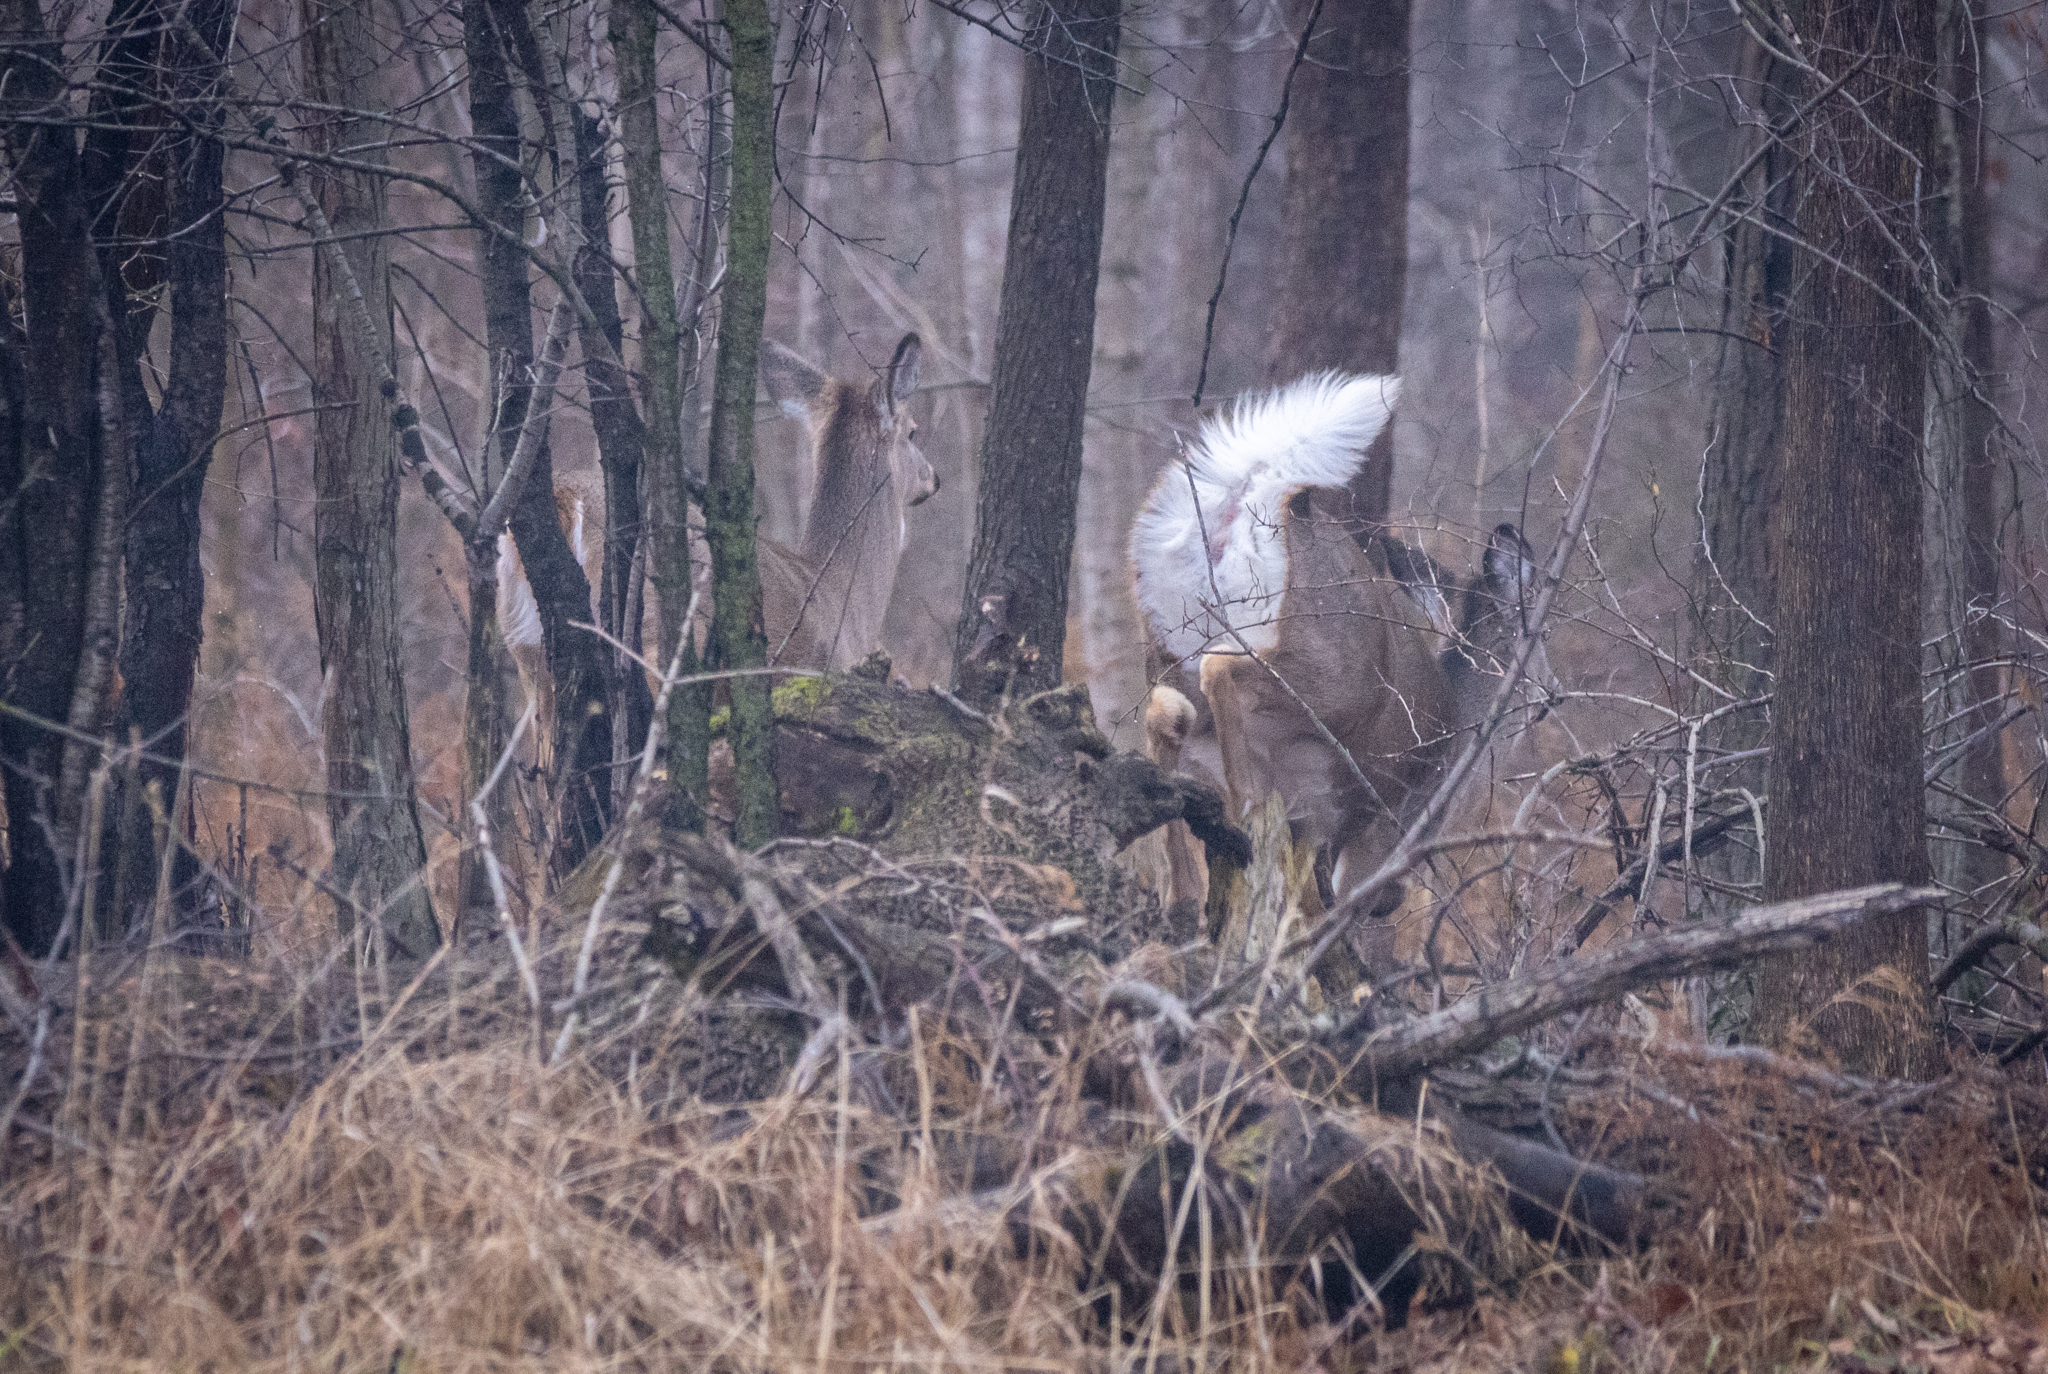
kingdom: Animalia
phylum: Chordata
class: Mammalia
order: Artiodactyla
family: Cervidae
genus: Odocoileus
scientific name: Odocoileus virginianus
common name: White-tailed deer
